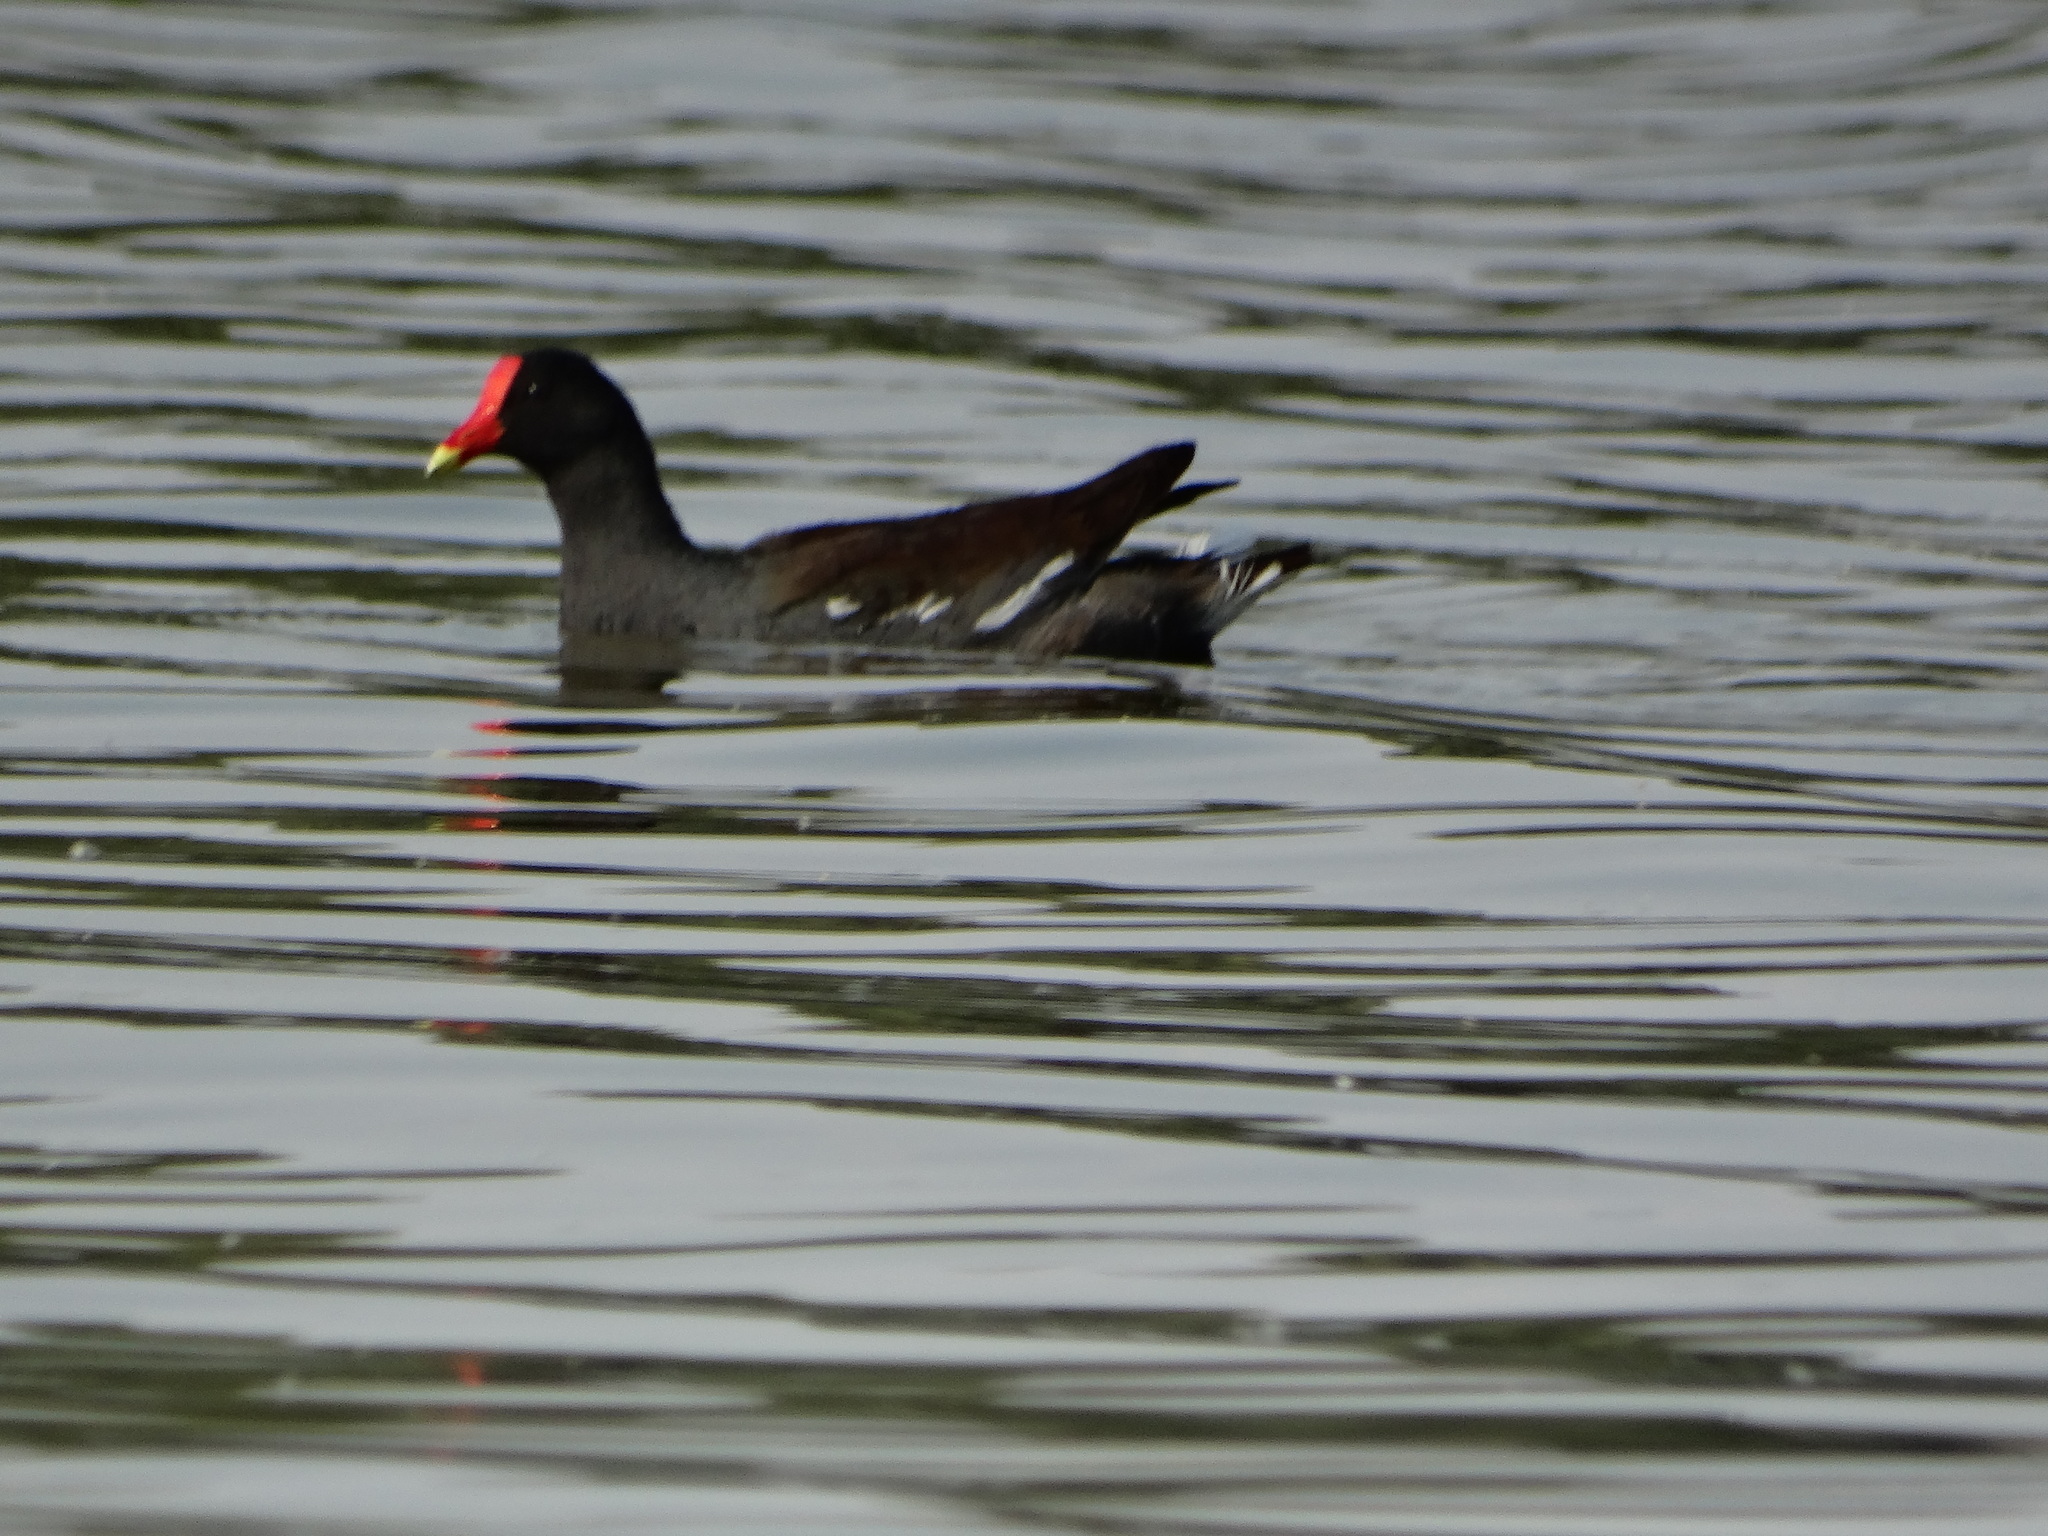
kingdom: Animalia
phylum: Chordata
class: Aves
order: Gruiformes
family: Rallidae
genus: Gallinula
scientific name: Gallinula chloropus
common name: Common moorhen
